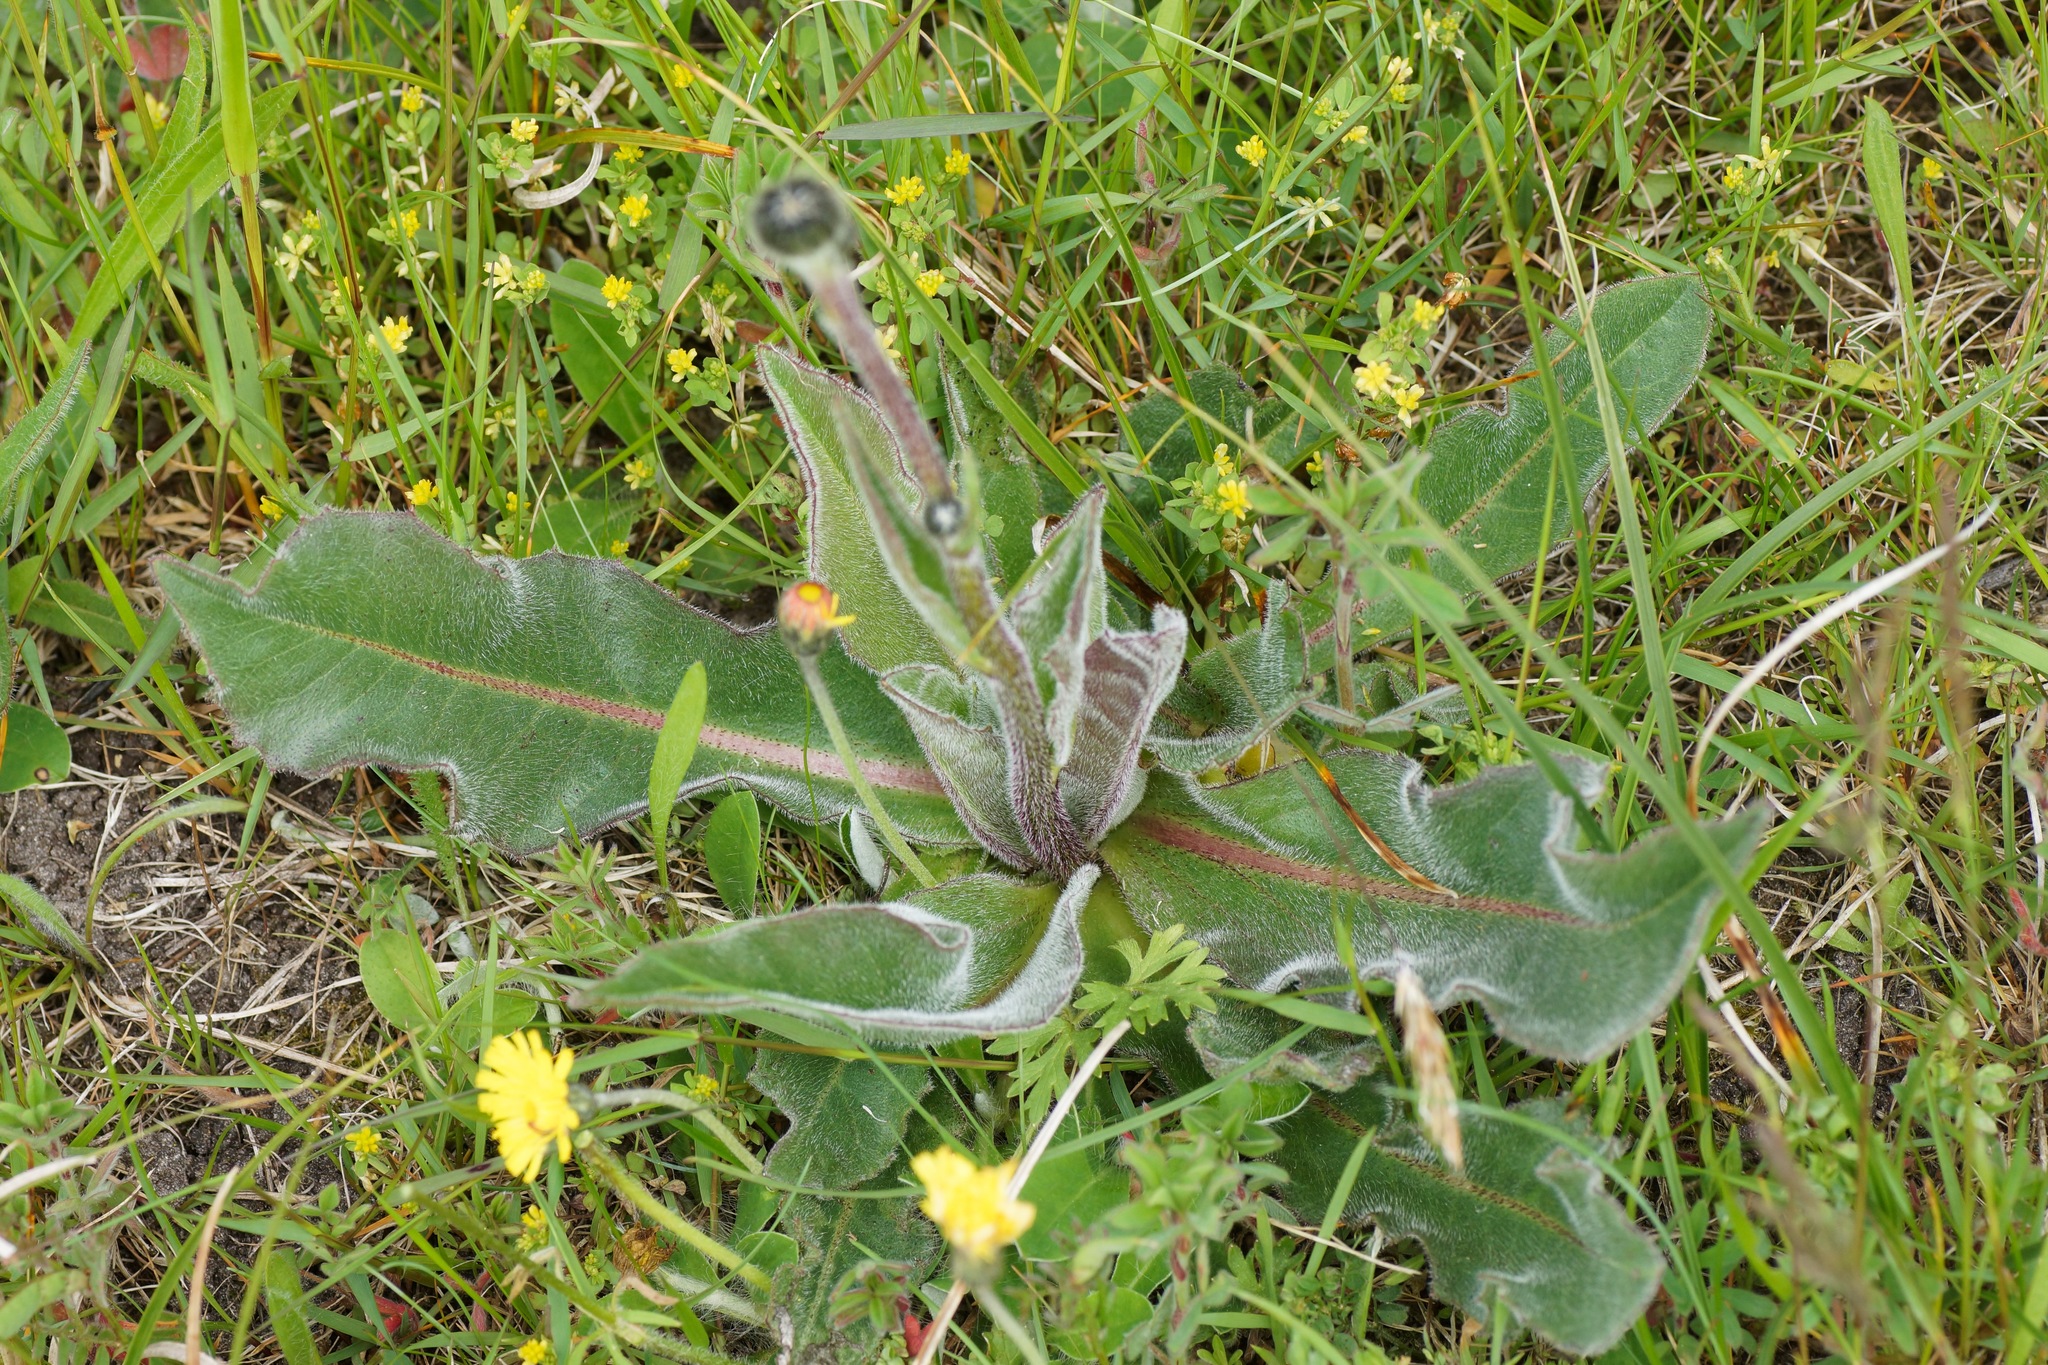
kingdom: Plantae
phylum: Tracheophyta
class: Magnoliopsida
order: Asterales
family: Asteraceae
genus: Trommsdorffia
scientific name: Trommsdorffia maculata
